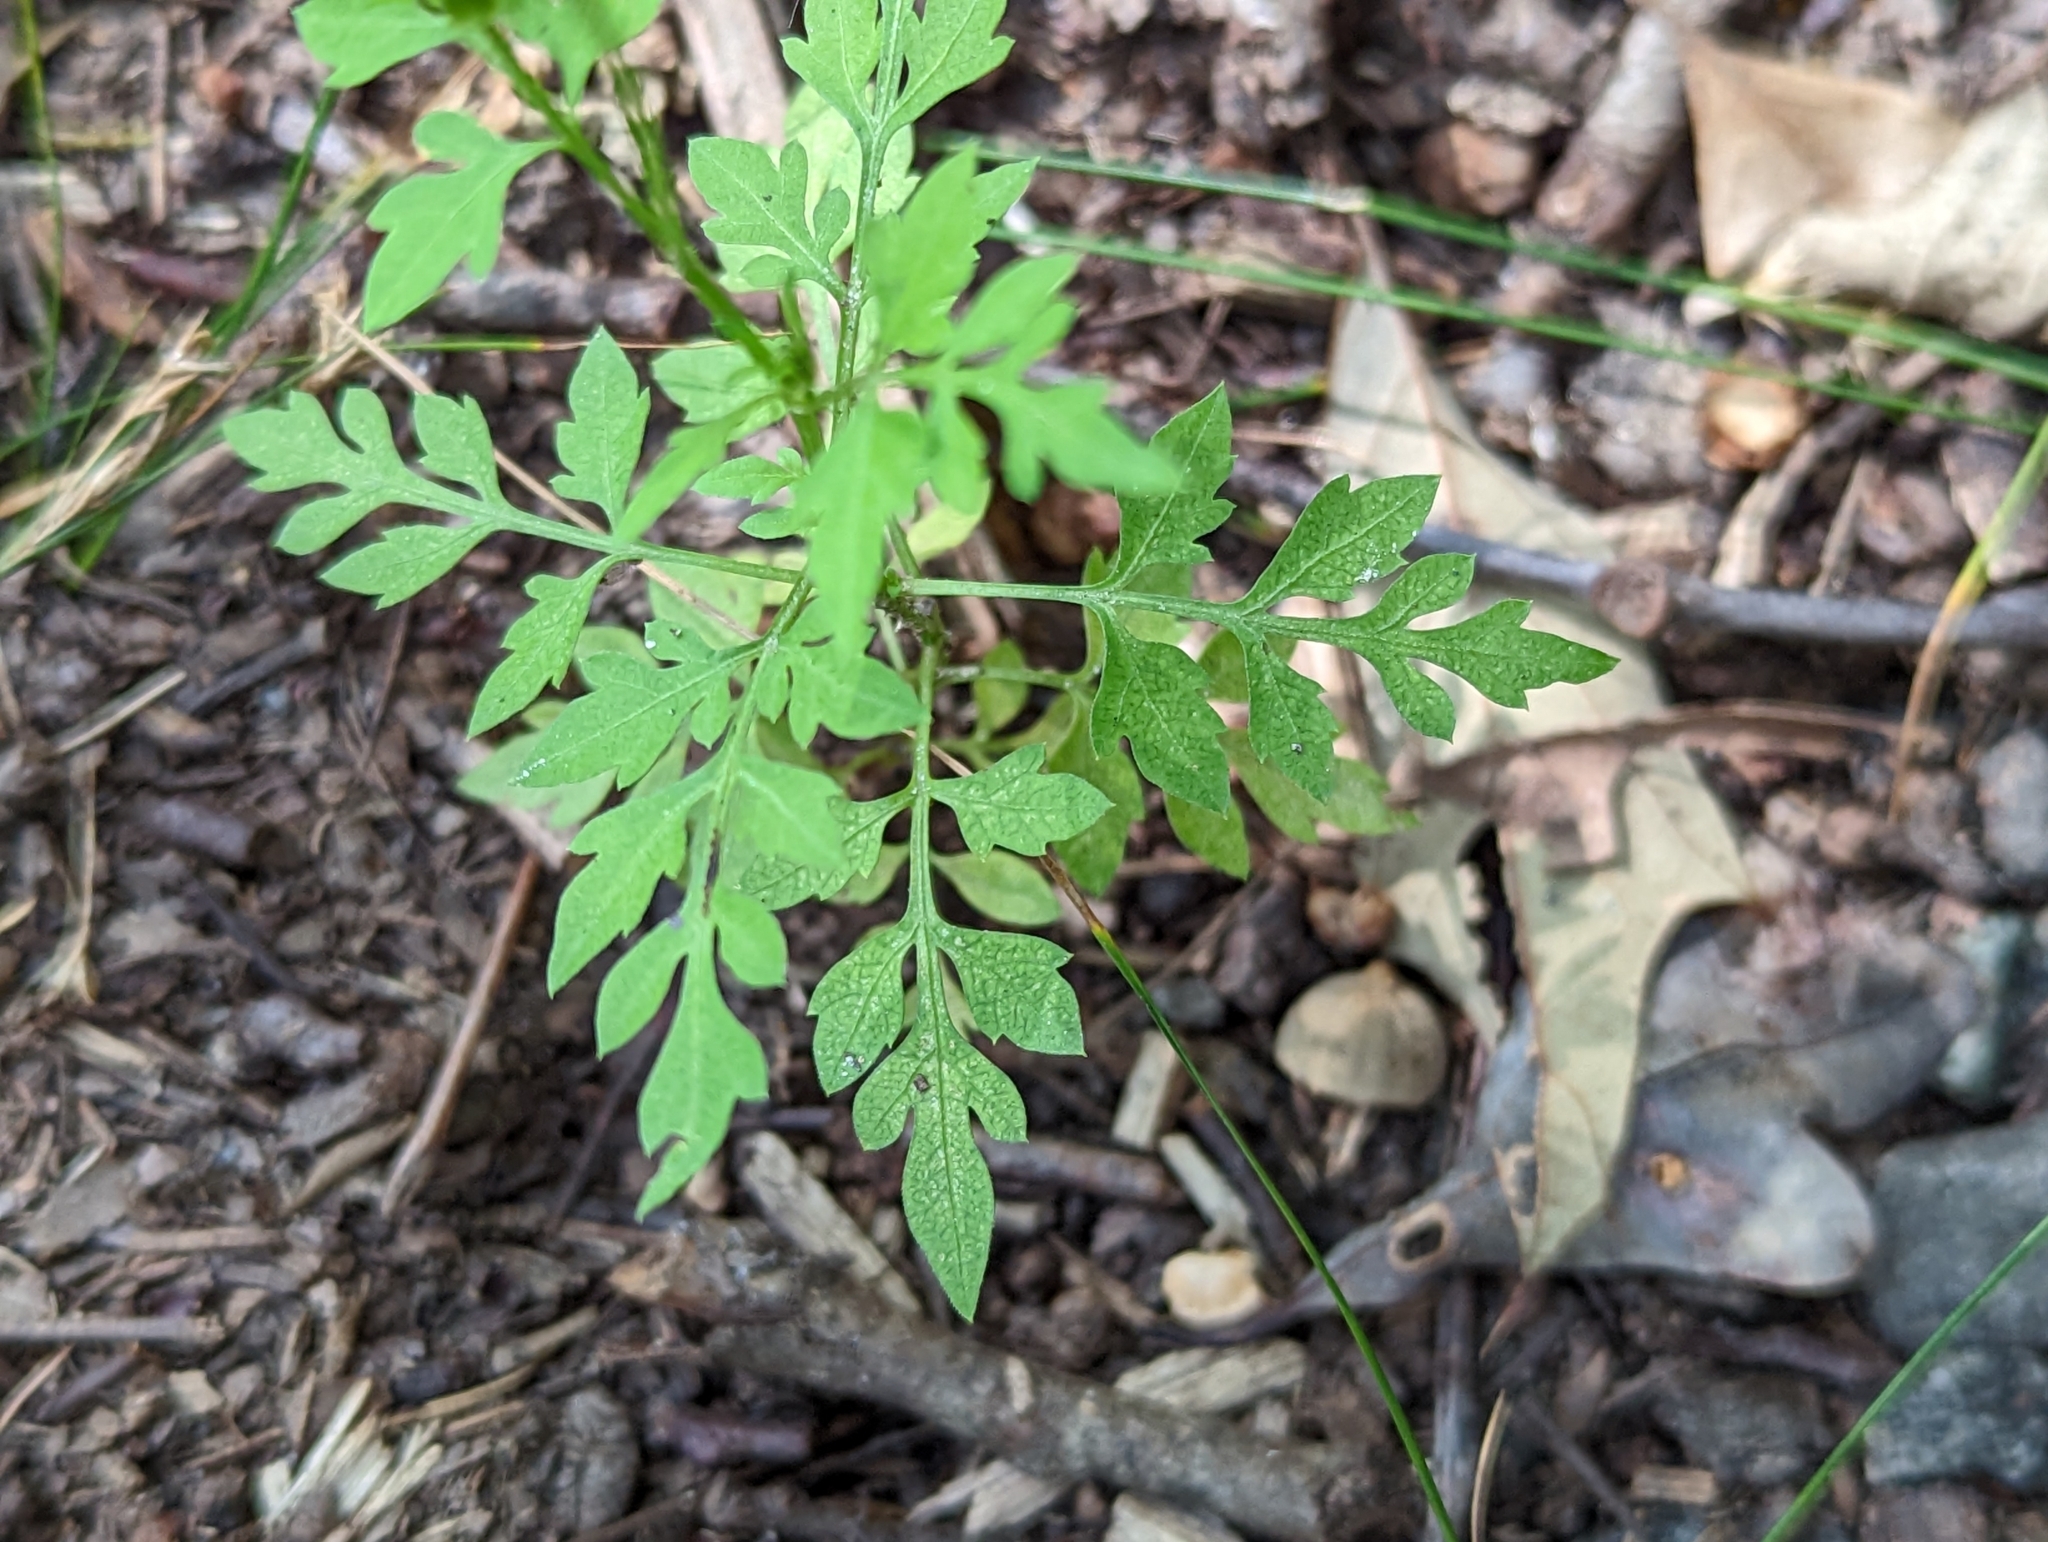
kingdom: Plantae
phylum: Tracheophyta
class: Magnoliopsida
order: Asterales
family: Asteraceae
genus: Bidens
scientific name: Bidens bipinnata
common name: Spanish-needles
